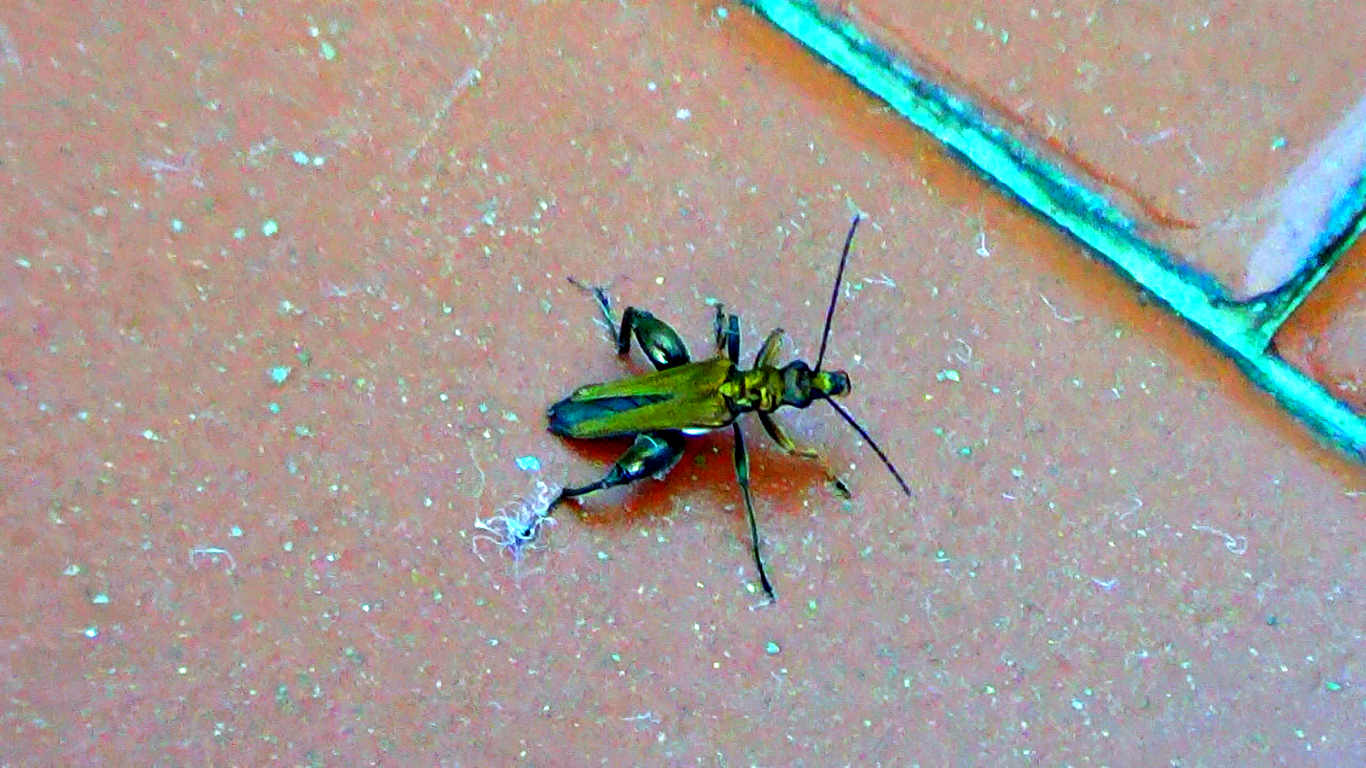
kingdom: Animalia
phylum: Arthropoda
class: Insecta
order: Coleoptera
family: Oedemeridae
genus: Oedemera
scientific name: Oedemera nobilis
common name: Swollen-thighed beetle
